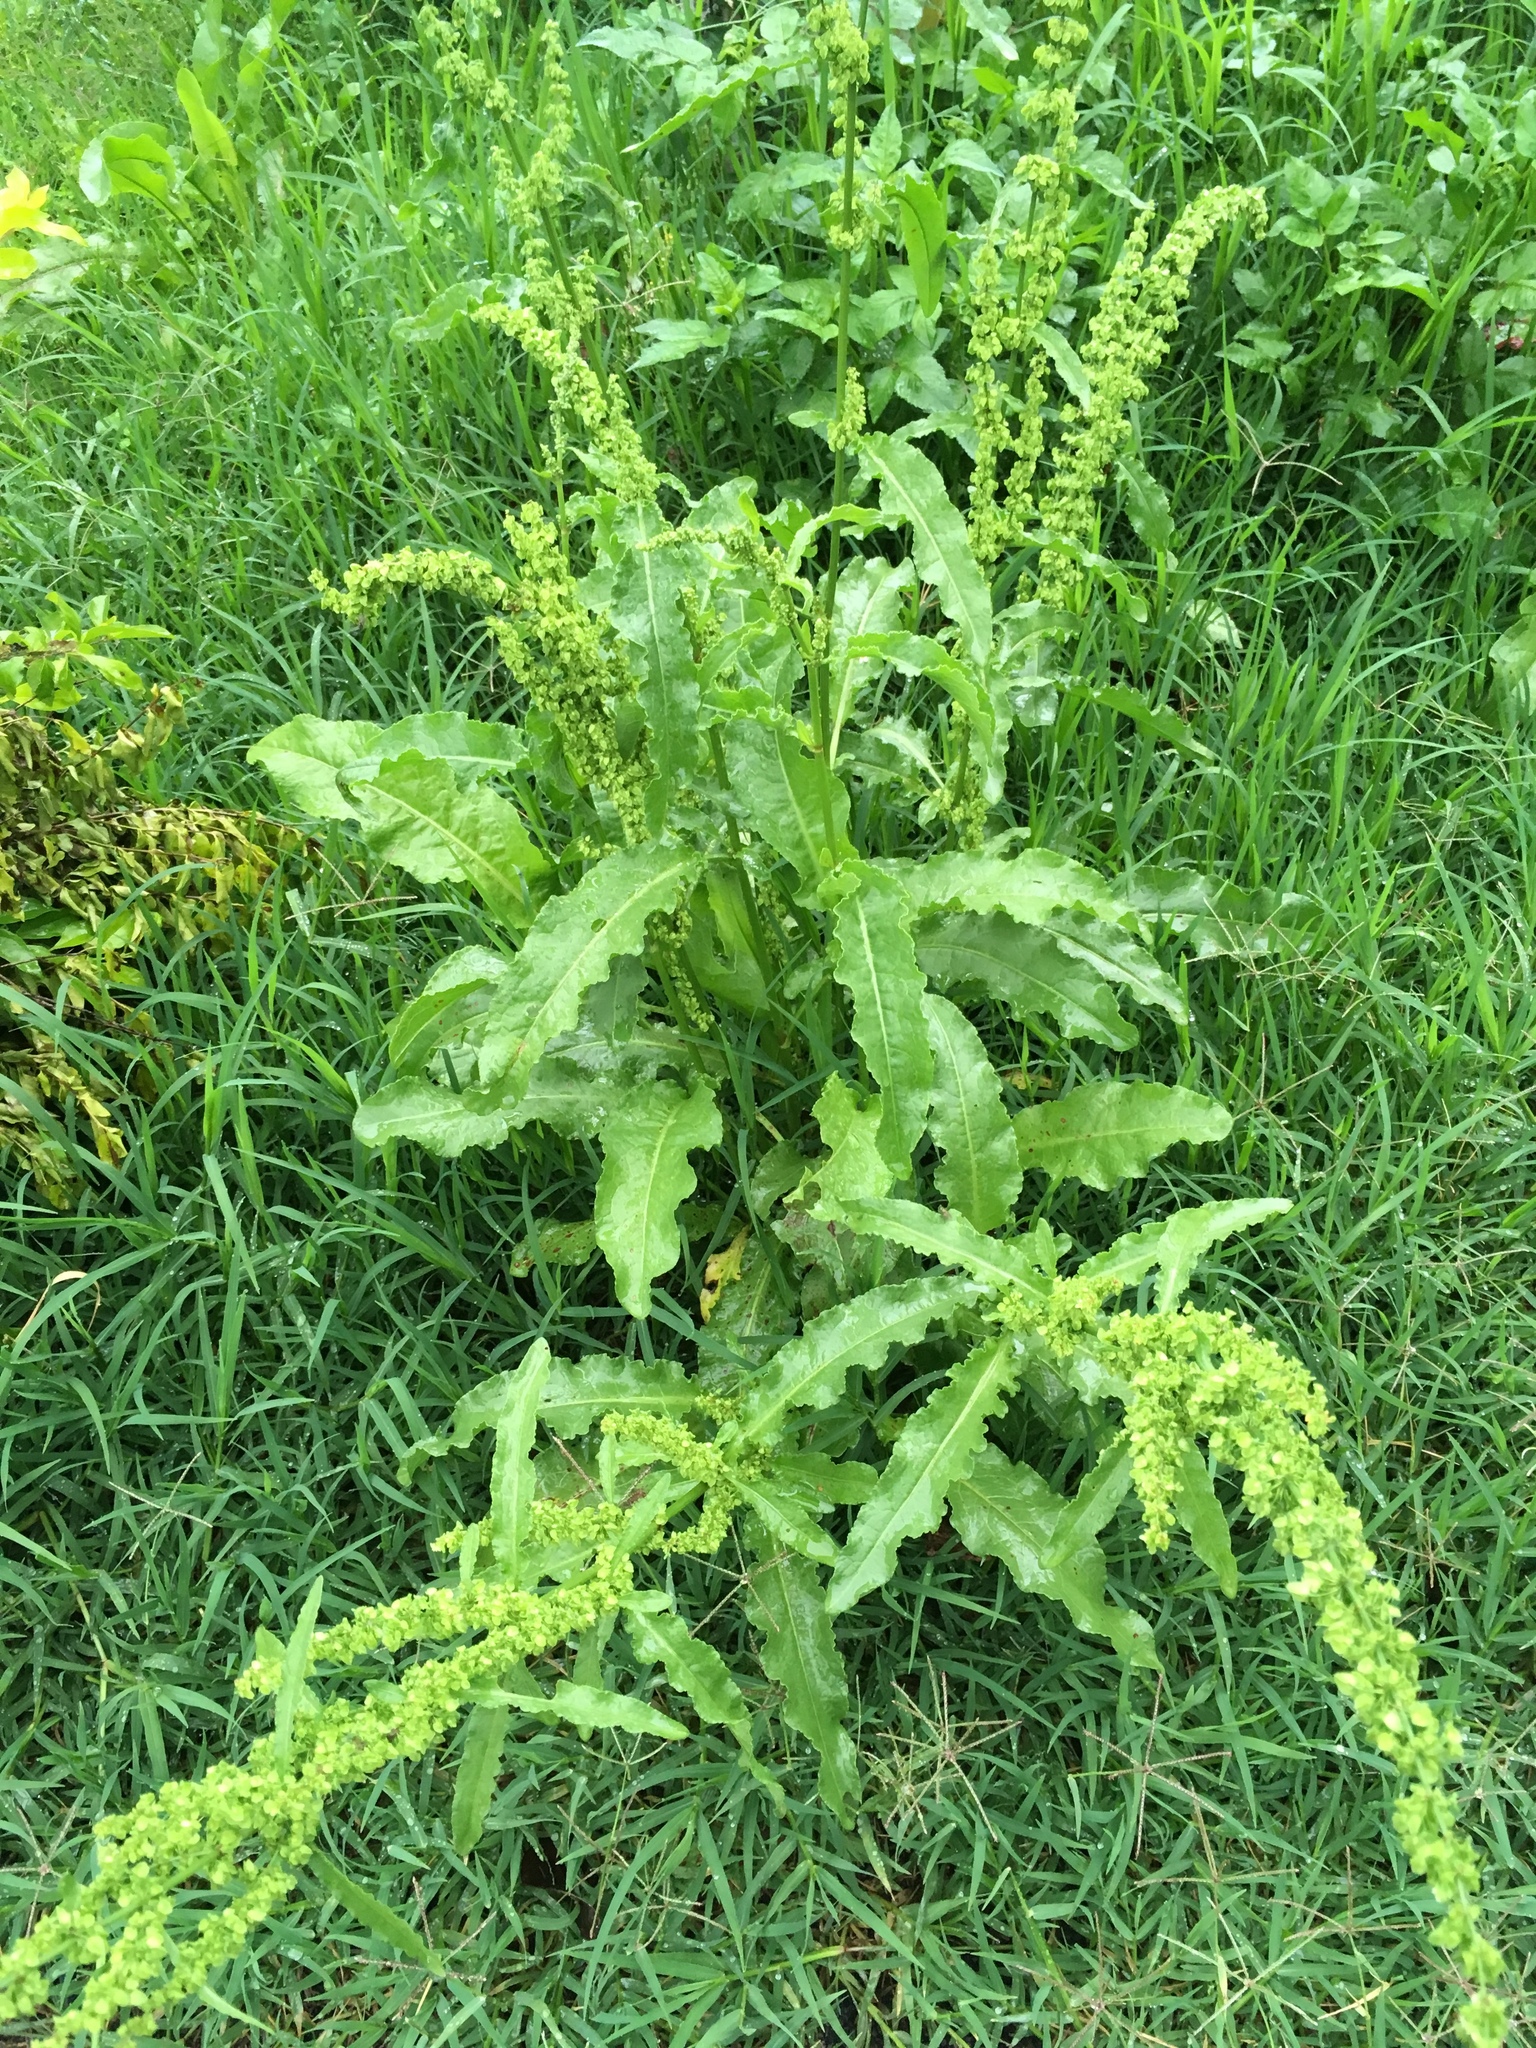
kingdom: Plantae
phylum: Tracheophyta
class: Magnoliopsida
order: Caryophyllales
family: Polygonaceae
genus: Rumex
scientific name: Rumex japonicus
